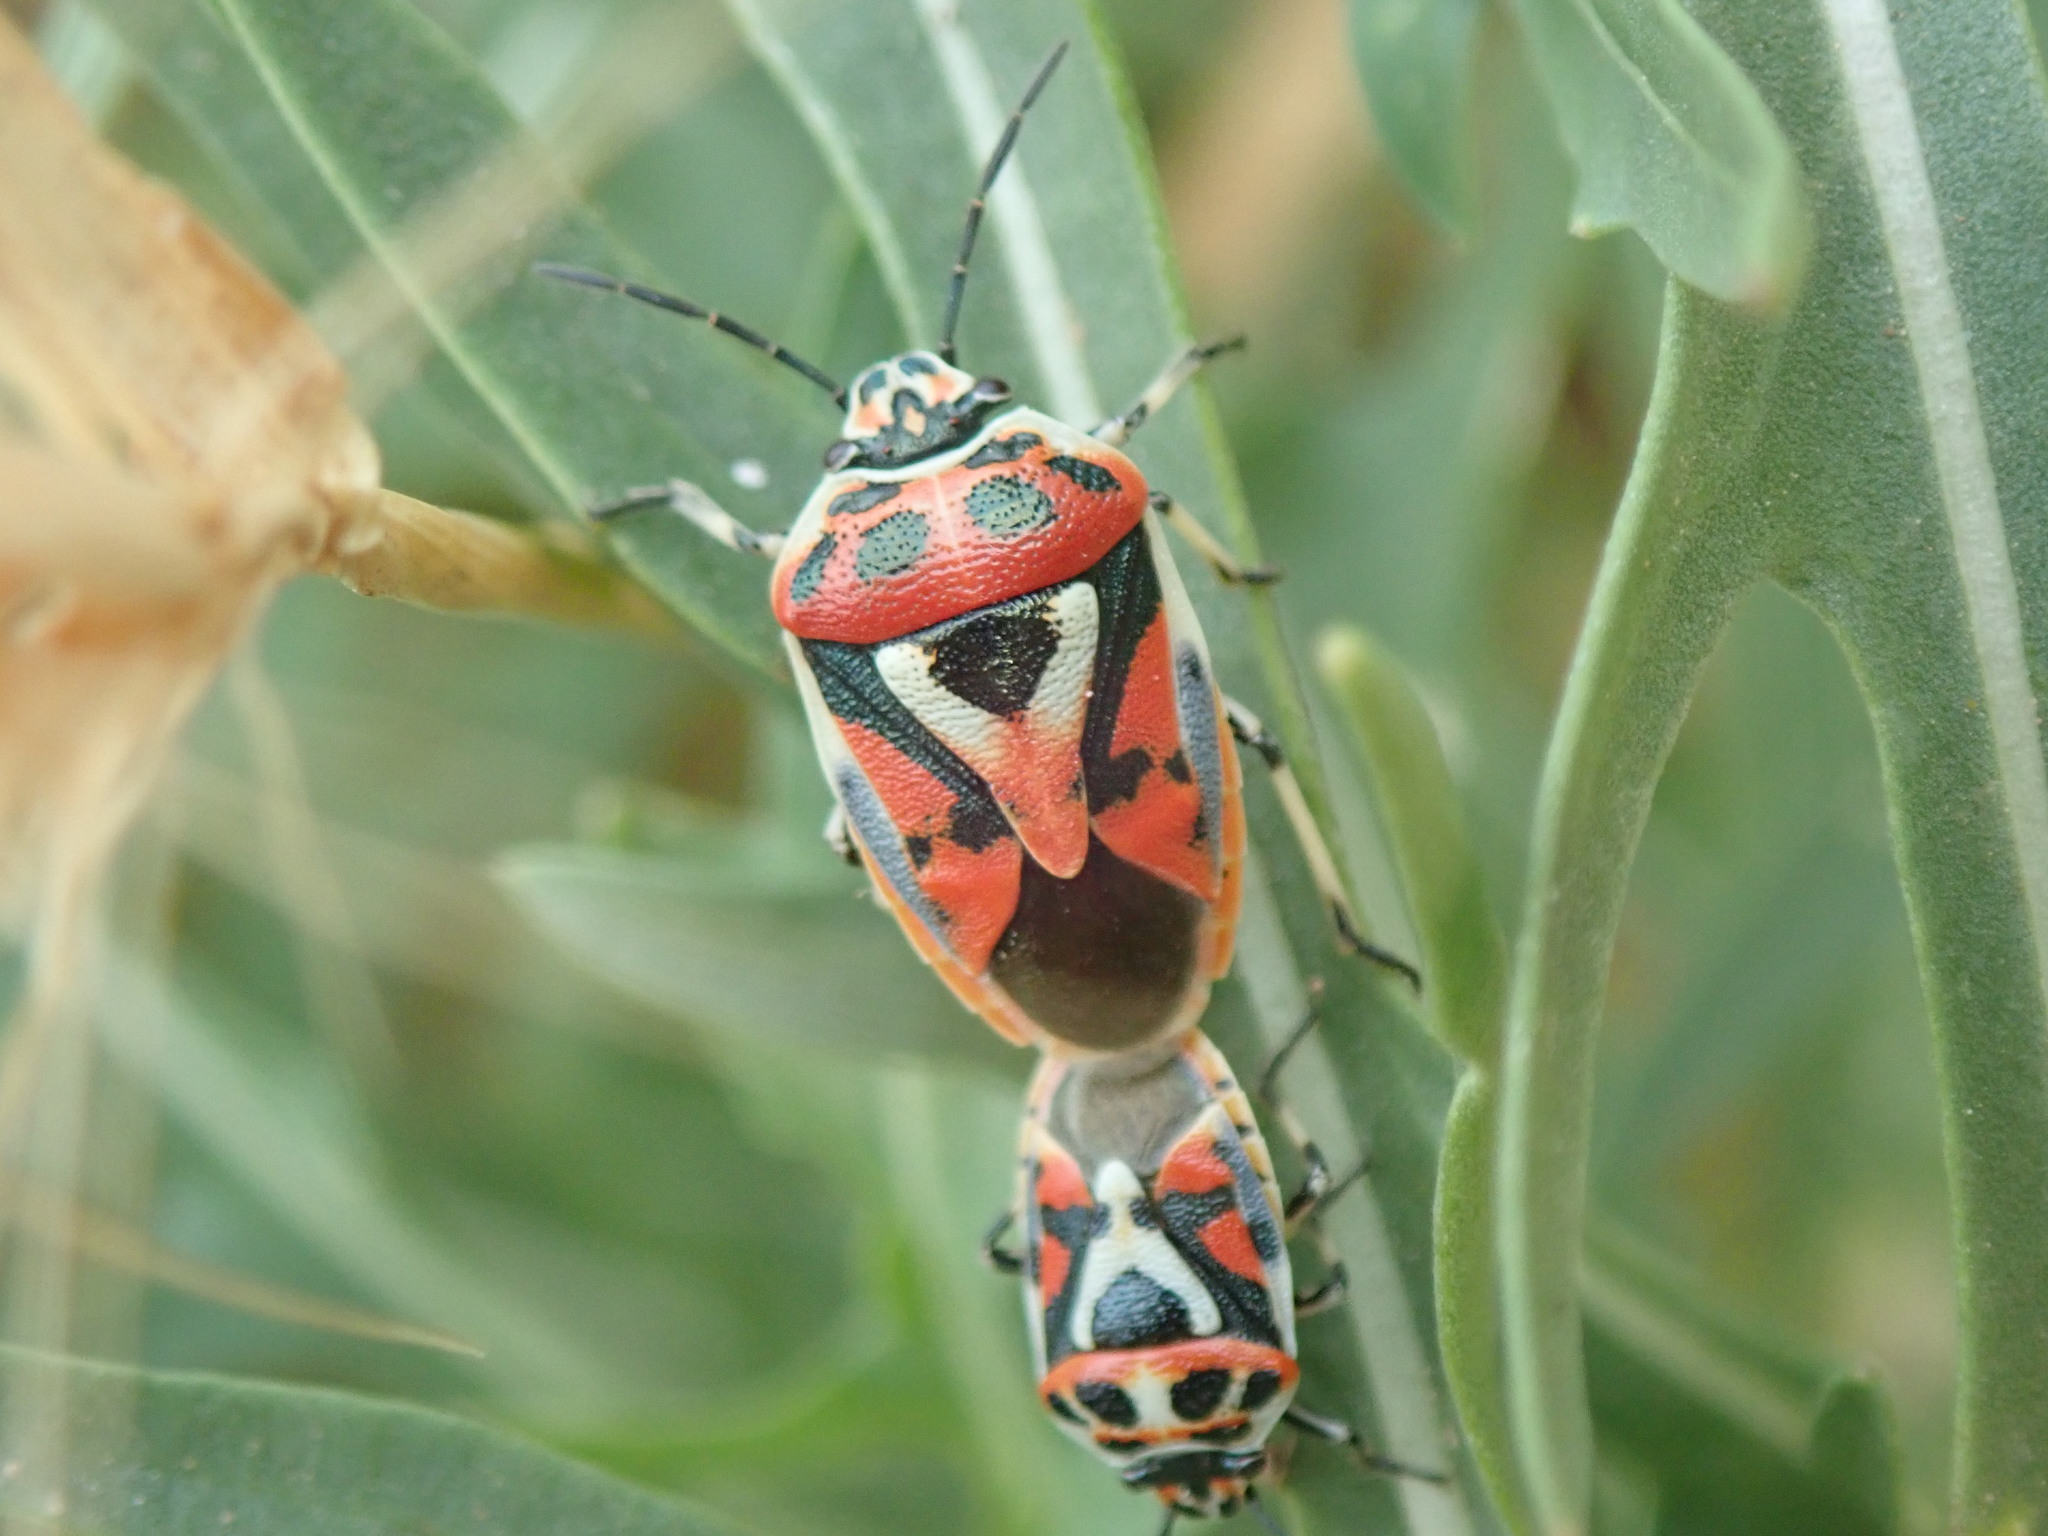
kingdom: Animalia
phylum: Arthropoda
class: Insecta
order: Hemiptera
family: Pentatomidae
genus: Eurydema
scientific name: Eurydema ornata
